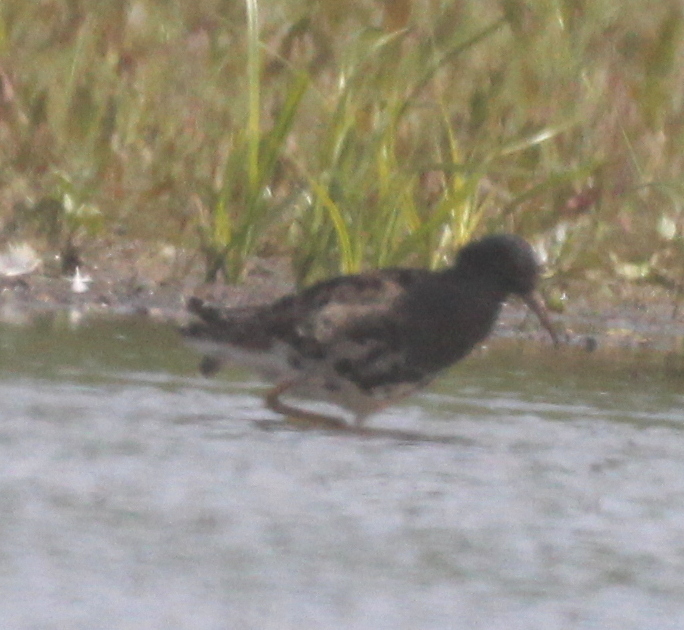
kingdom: Animalia
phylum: Chordata
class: Aves
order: Charadriiformes
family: Scolopacidae
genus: Calidris
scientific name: Calidris pugnax
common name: Ruff
